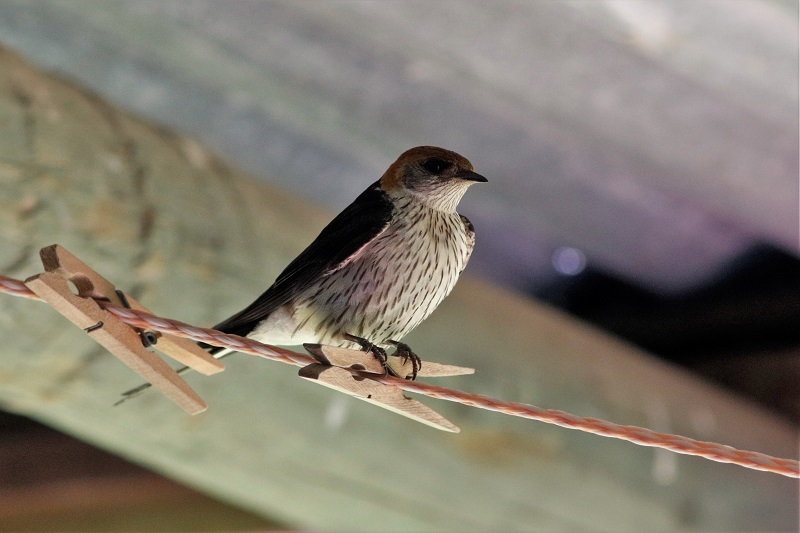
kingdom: Animalia
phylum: Chordata
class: Aves
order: Passeriformes
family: Hirundinidae
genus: Cecropis
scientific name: Cecropis cucullata
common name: Greater striped-swallow
